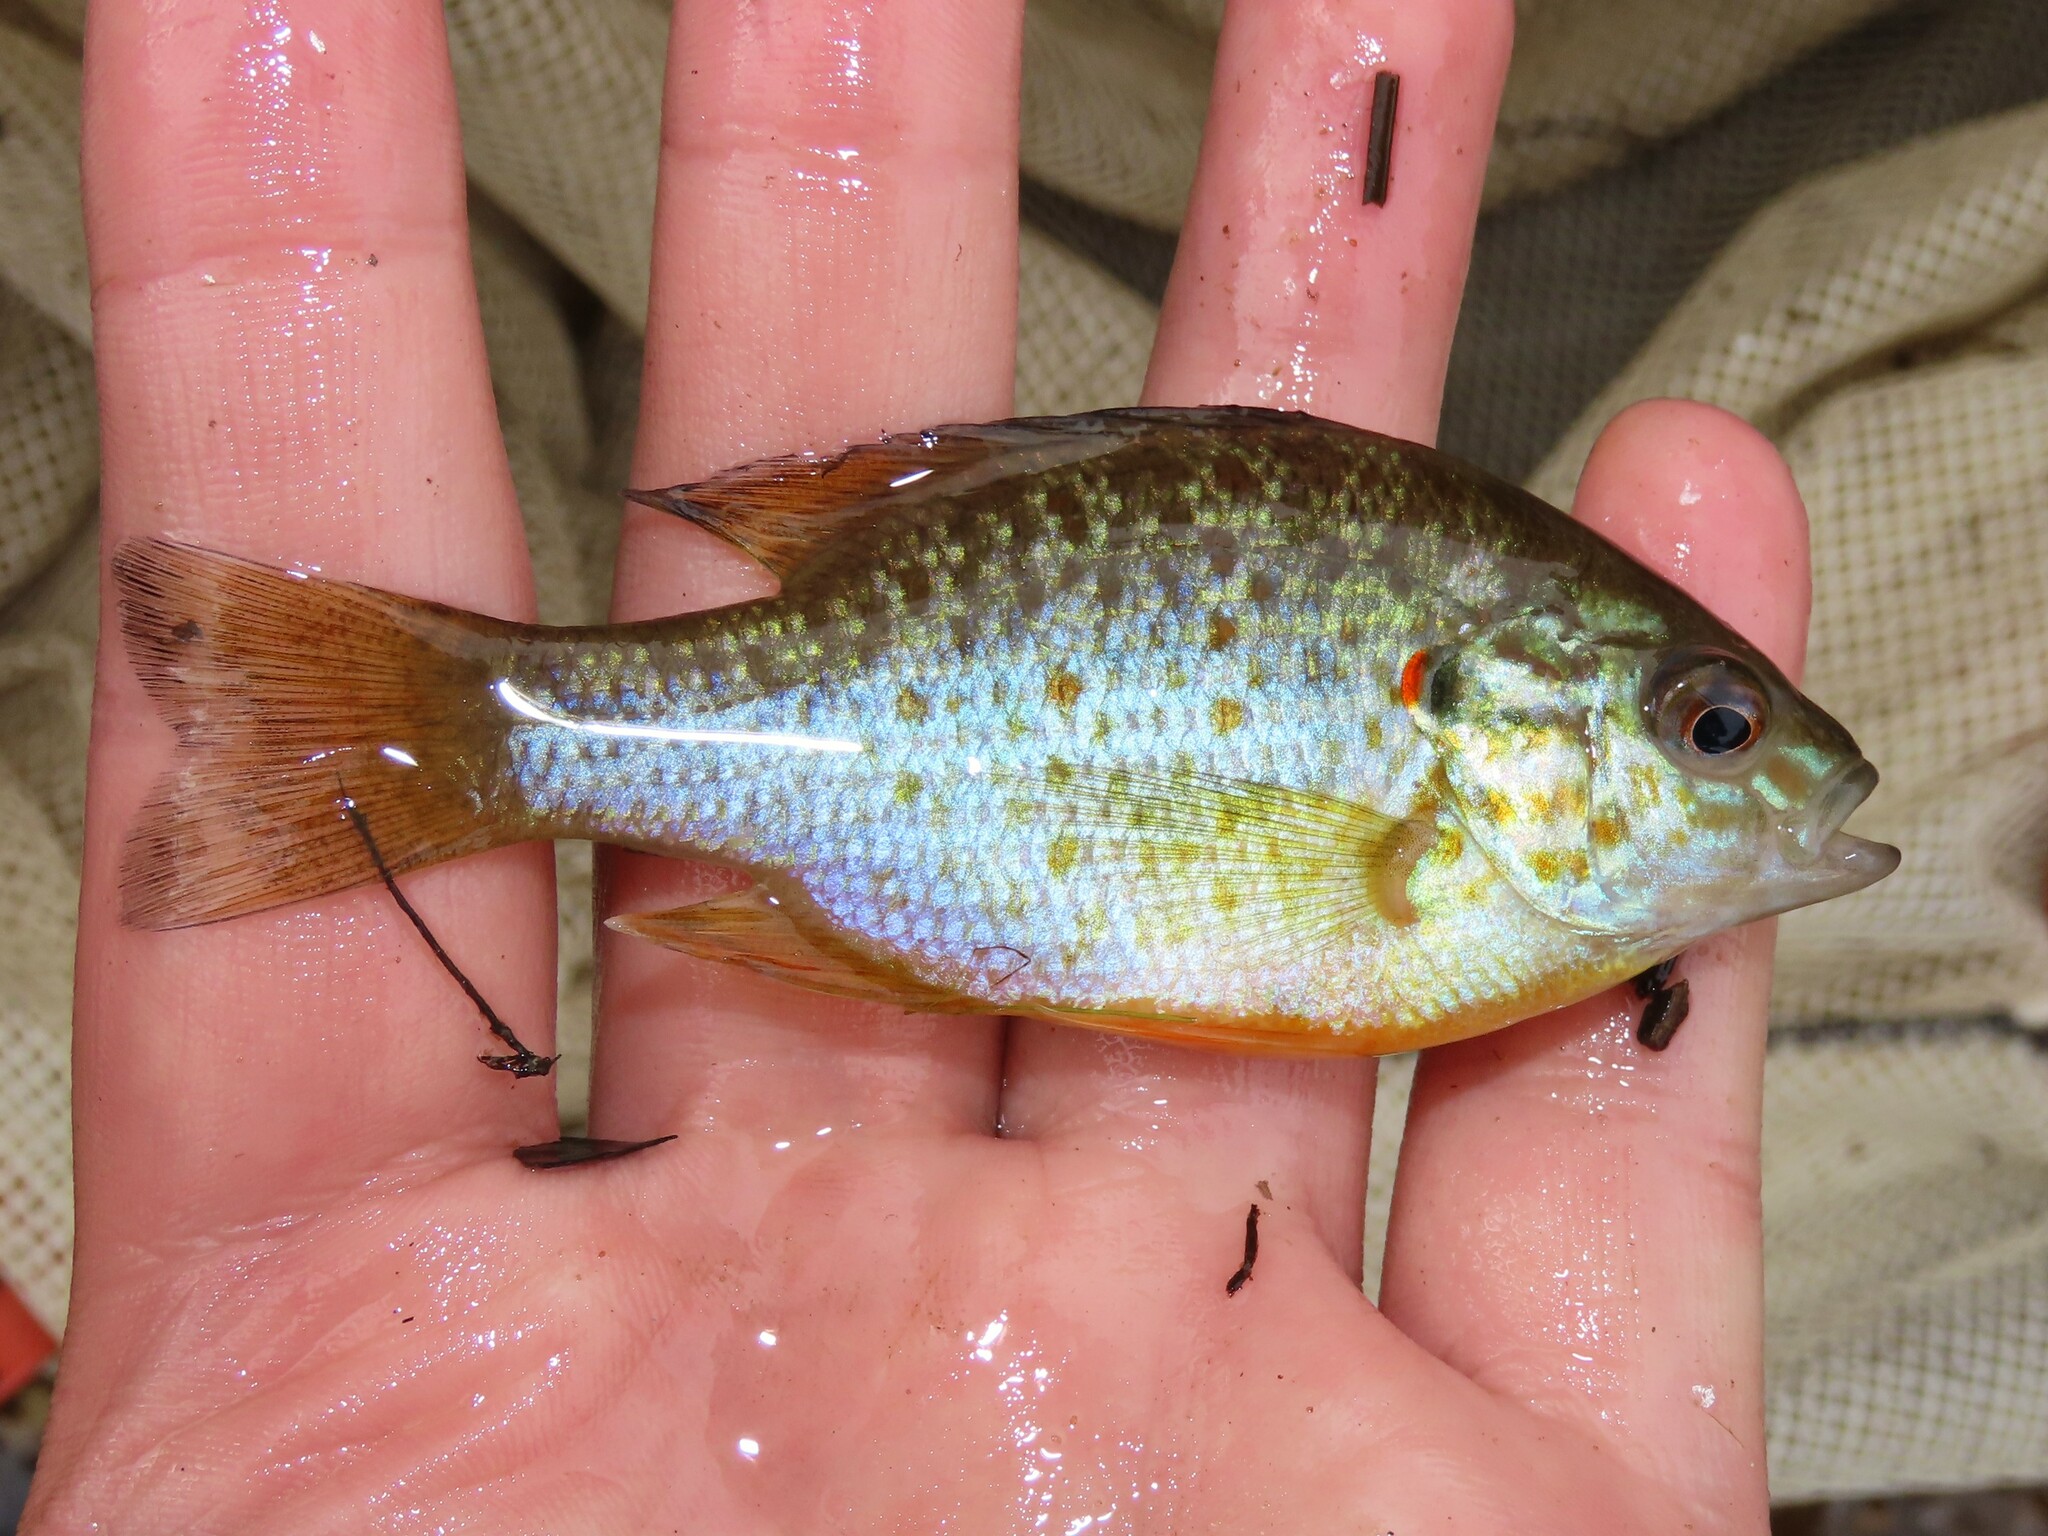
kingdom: Animalia
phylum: Chordata
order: Perciformes
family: Centrarchidae
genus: Lepomis
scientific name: Lepomis gibbosus
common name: Pumpkinseed
